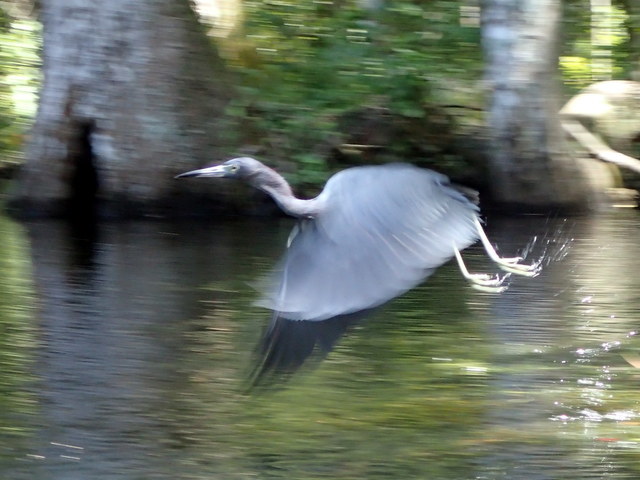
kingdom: Animalia
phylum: Chordata
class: Aves
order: Pelecaniformes
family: Ardeidae
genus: Egretta
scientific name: Egretta caerulea
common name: Little blue heron
